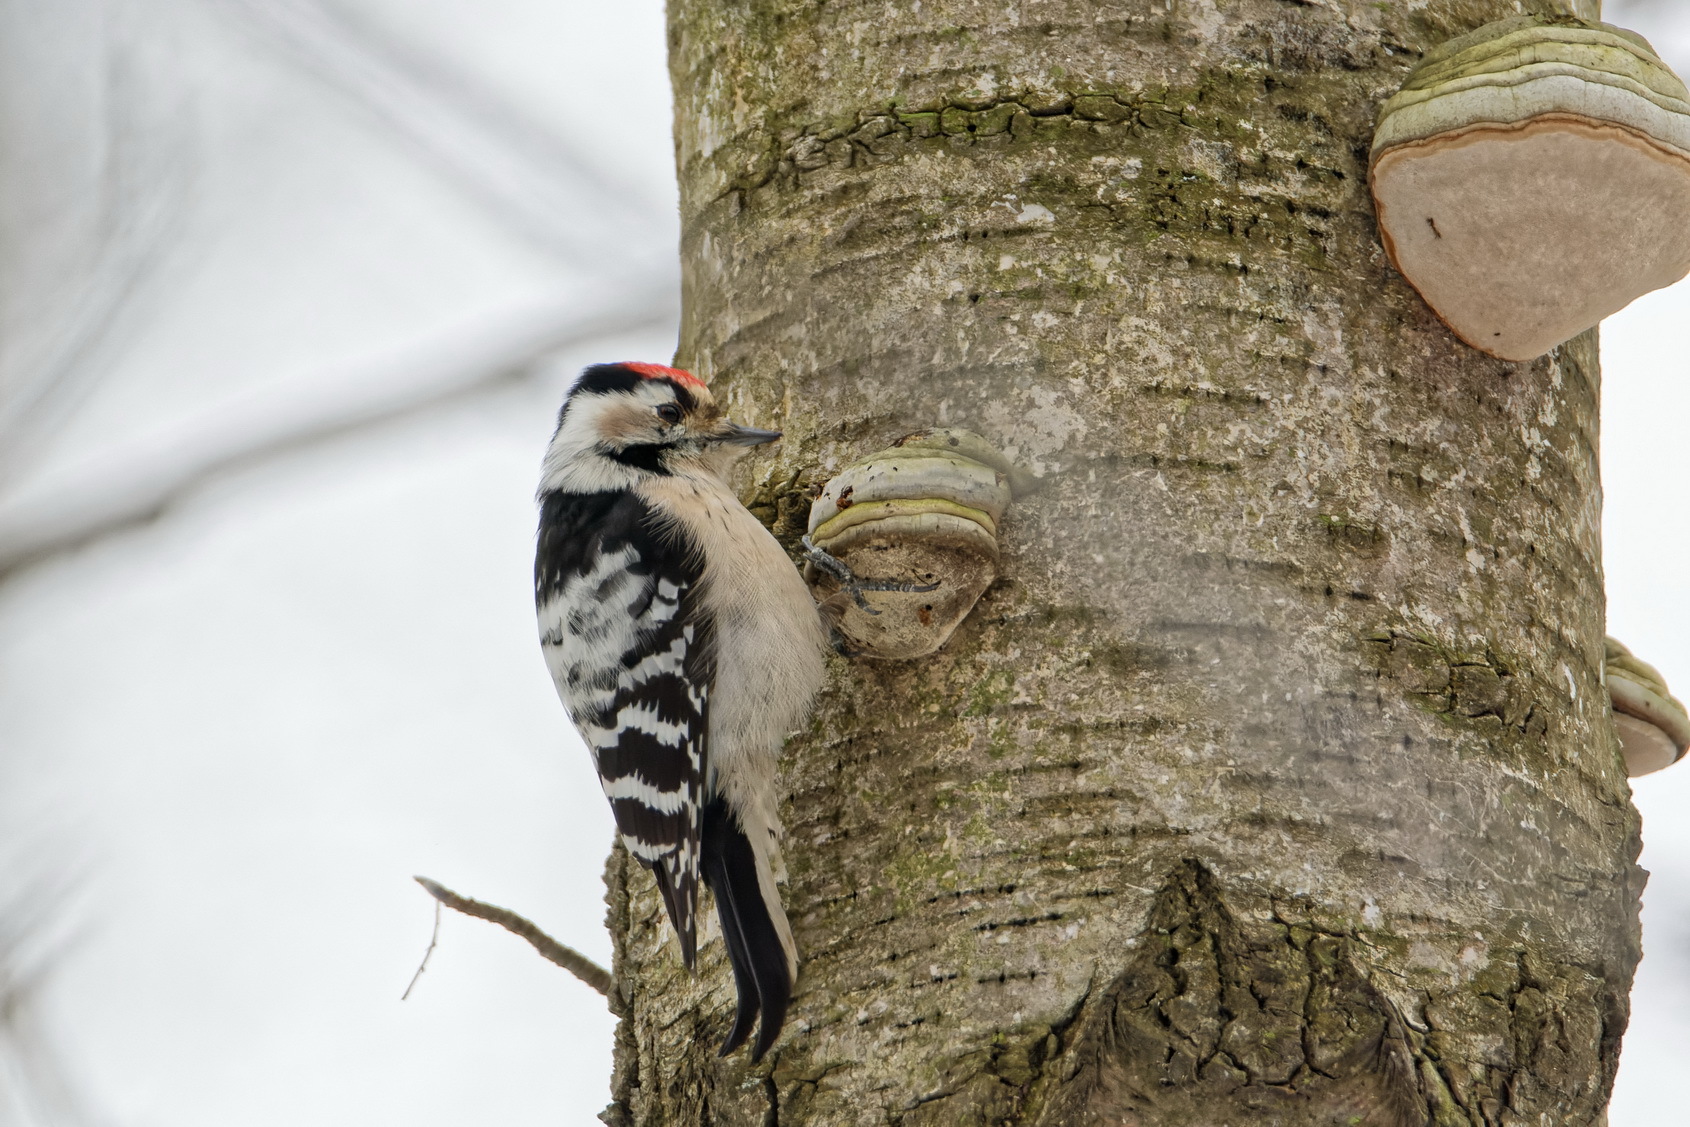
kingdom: Animalia
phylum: Chordata
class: Aves
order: Piciformes
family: Picidae
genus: Dryobates
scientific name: Dryobates minor
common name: Lesser spotted woodpecker
